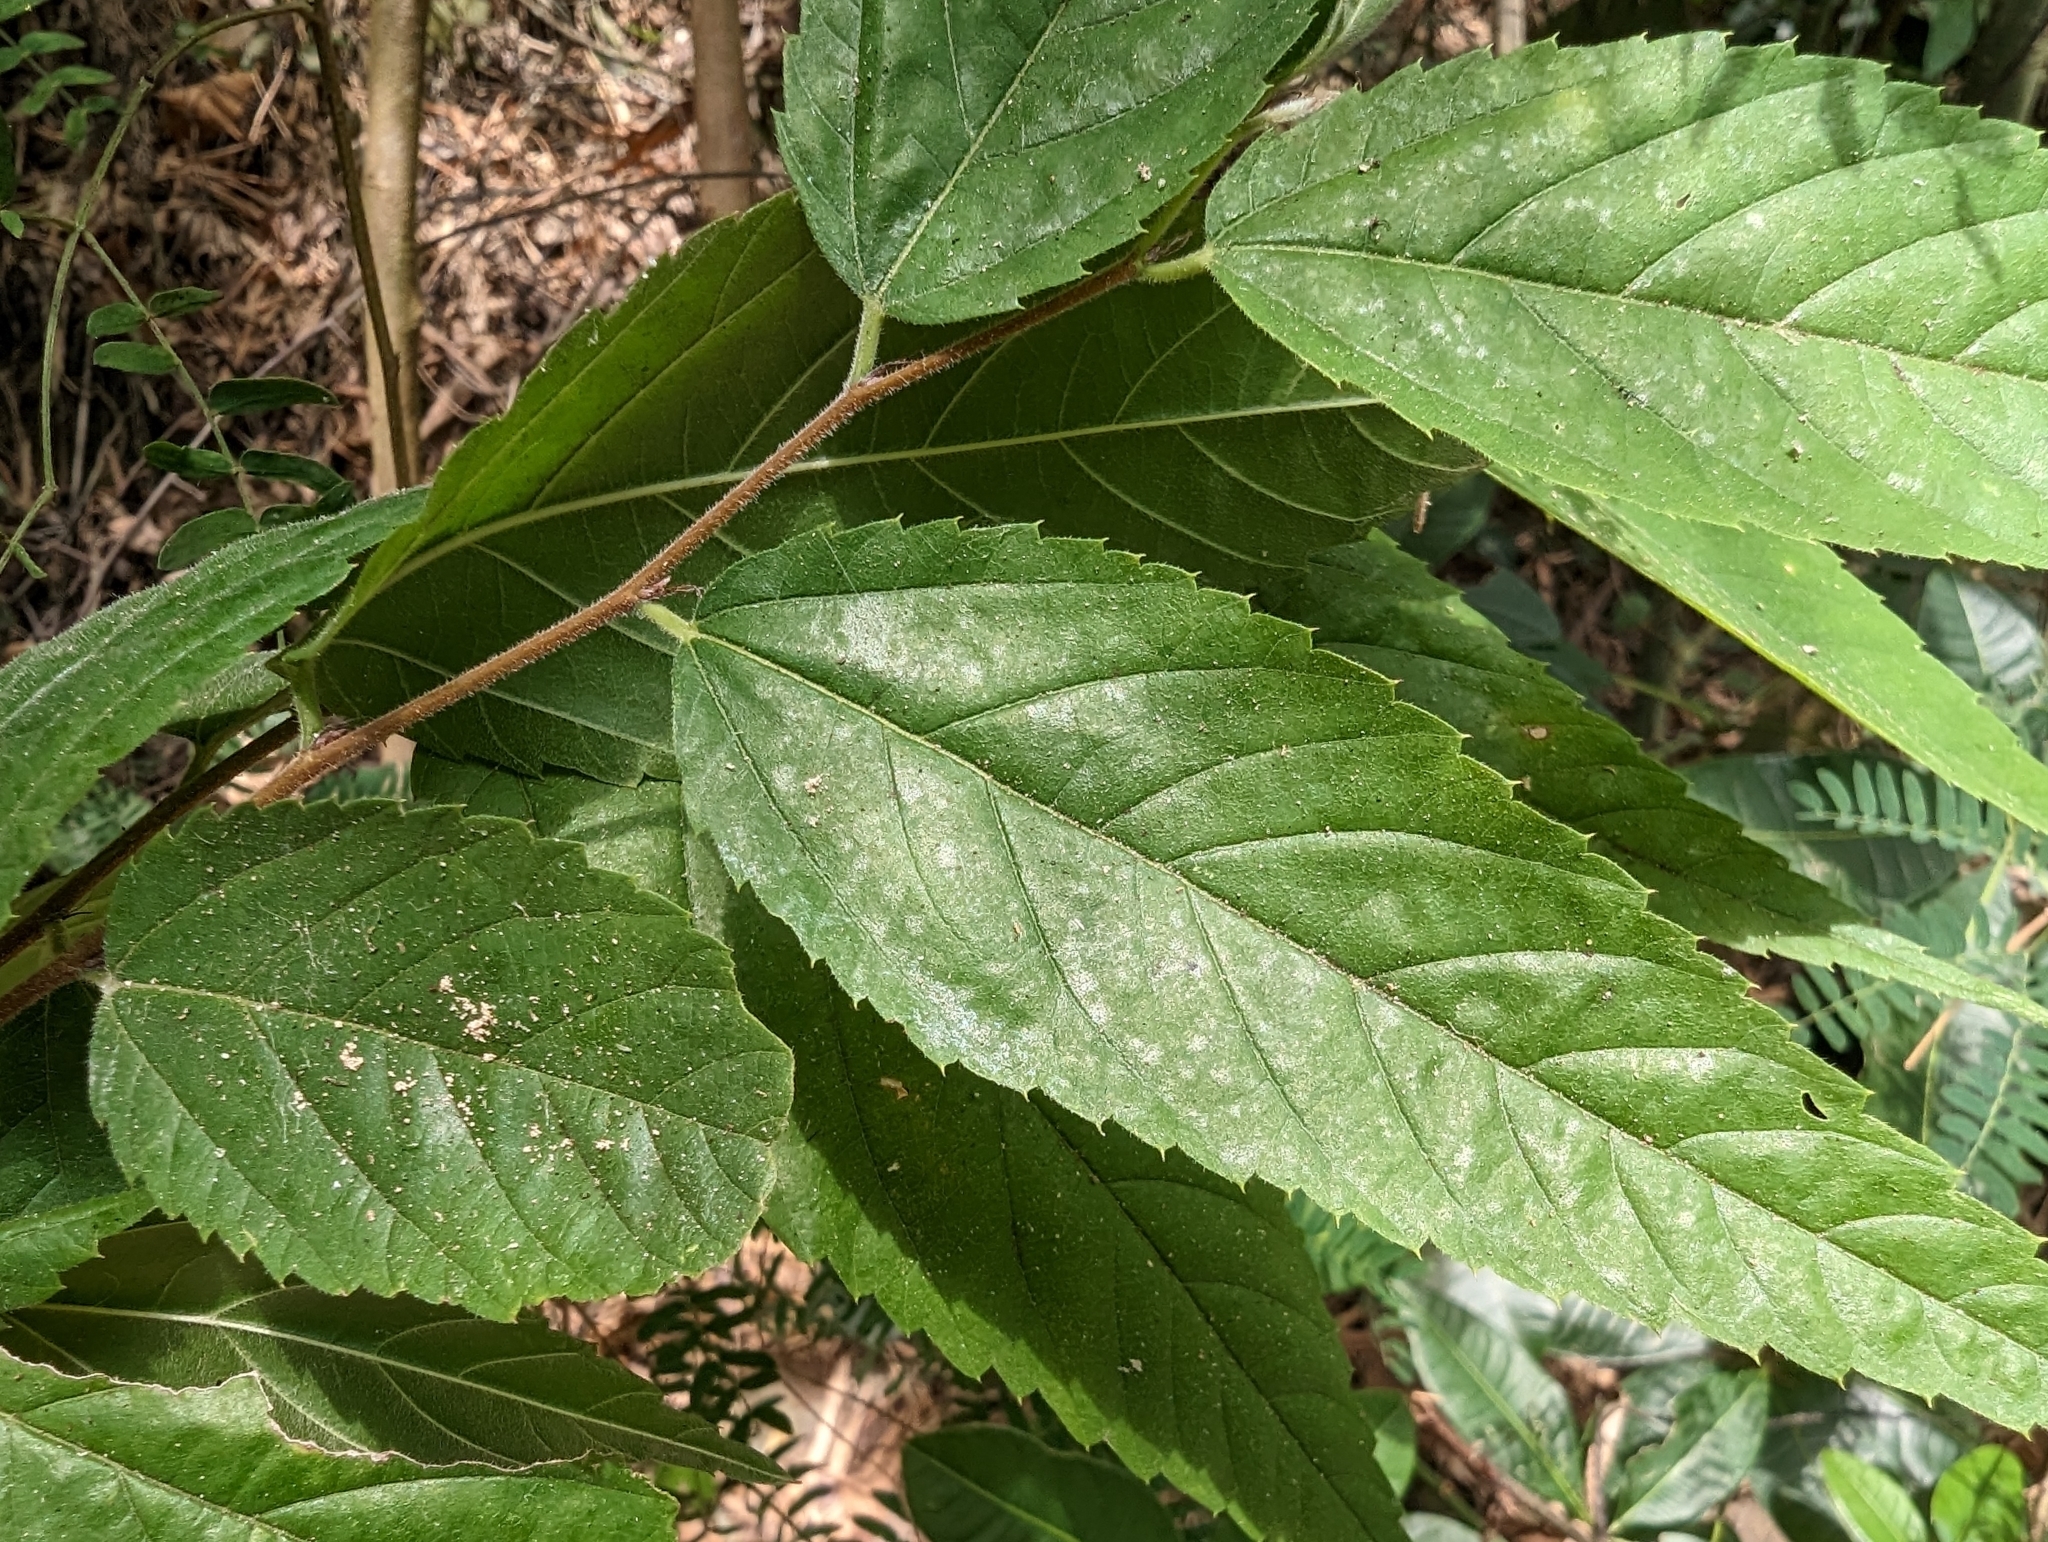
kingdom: Plantae
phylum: Tracheophyta
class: Magnoliopsida
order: Rosales
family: Cannabaceae
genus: Aphananthe
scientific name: Aphananthe aspera
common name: Mukutree
